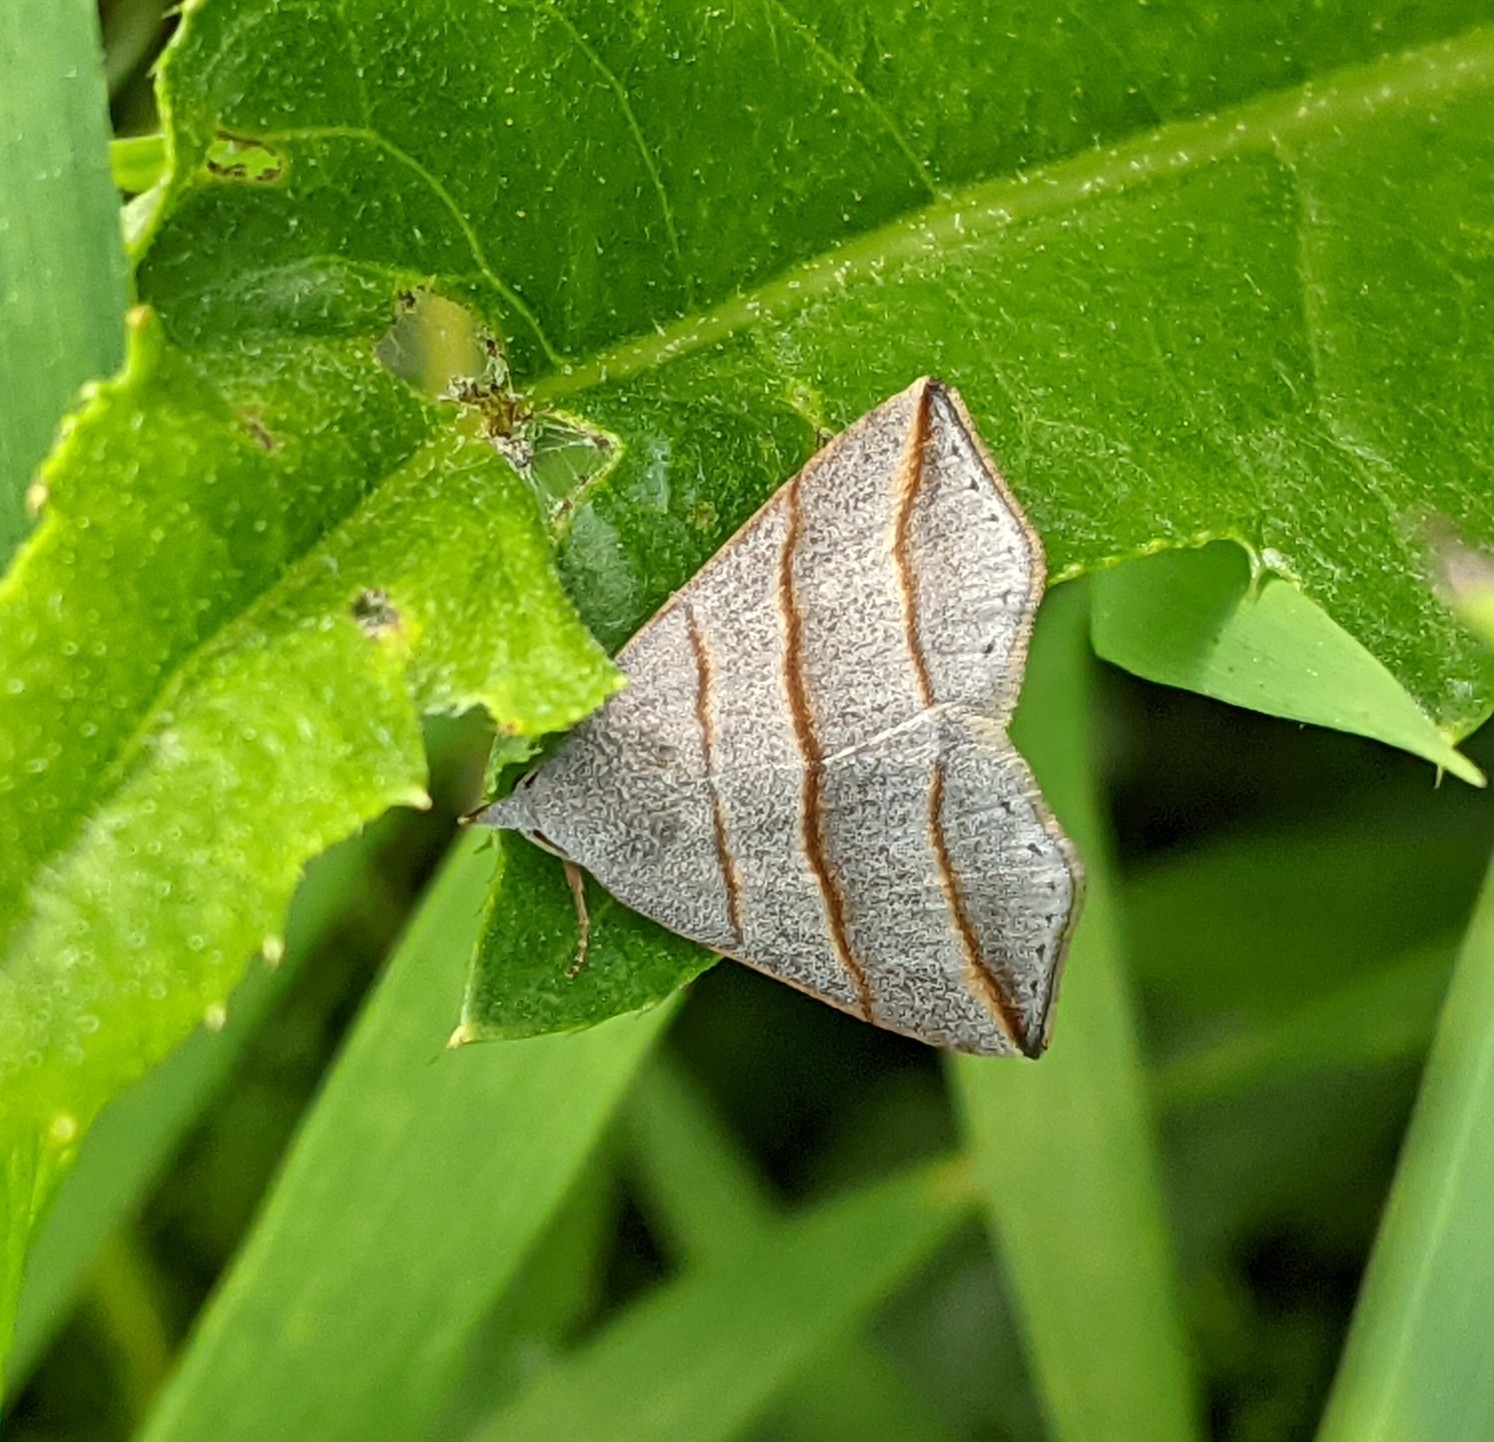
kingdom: Animalia
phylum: Arthropoda
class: Insecta
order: Lepidoptera
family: Erebidae
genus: Colobochyla
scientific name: Colobochyla salicalis
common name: Lesser belle
